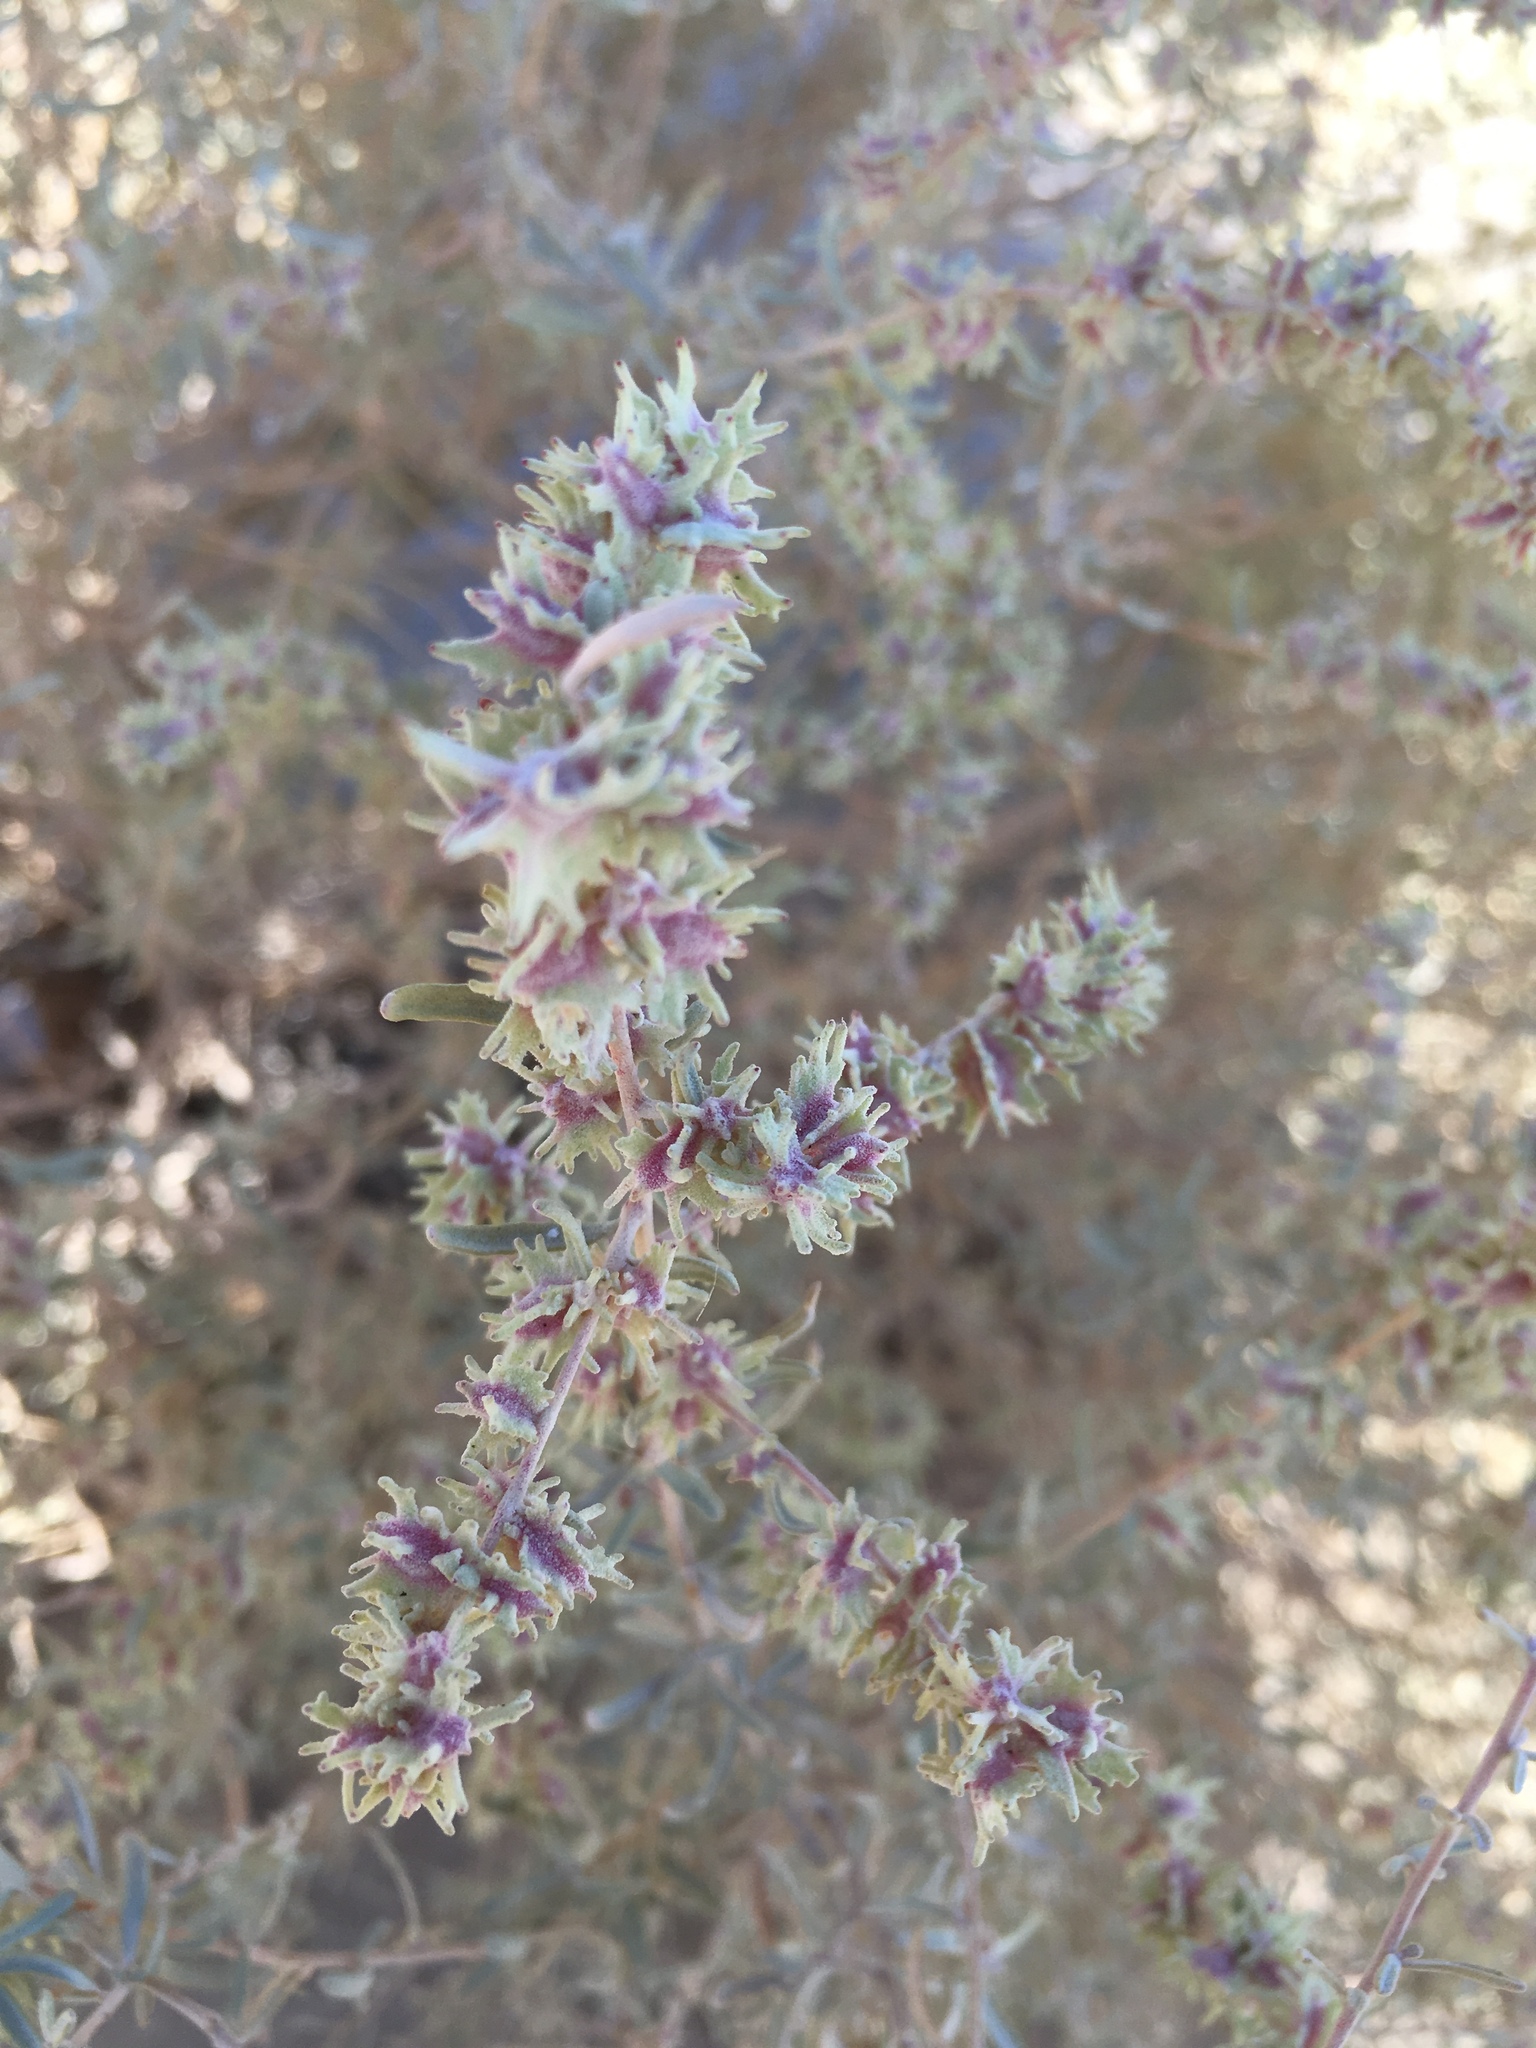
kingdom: Plantae
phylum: Tracheophyta
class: Magnoliopsida
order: Caryophyllales
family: Amaranthaceae
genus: Atriplex
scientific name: Atriplex canescens
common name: Four-wing saltbush
